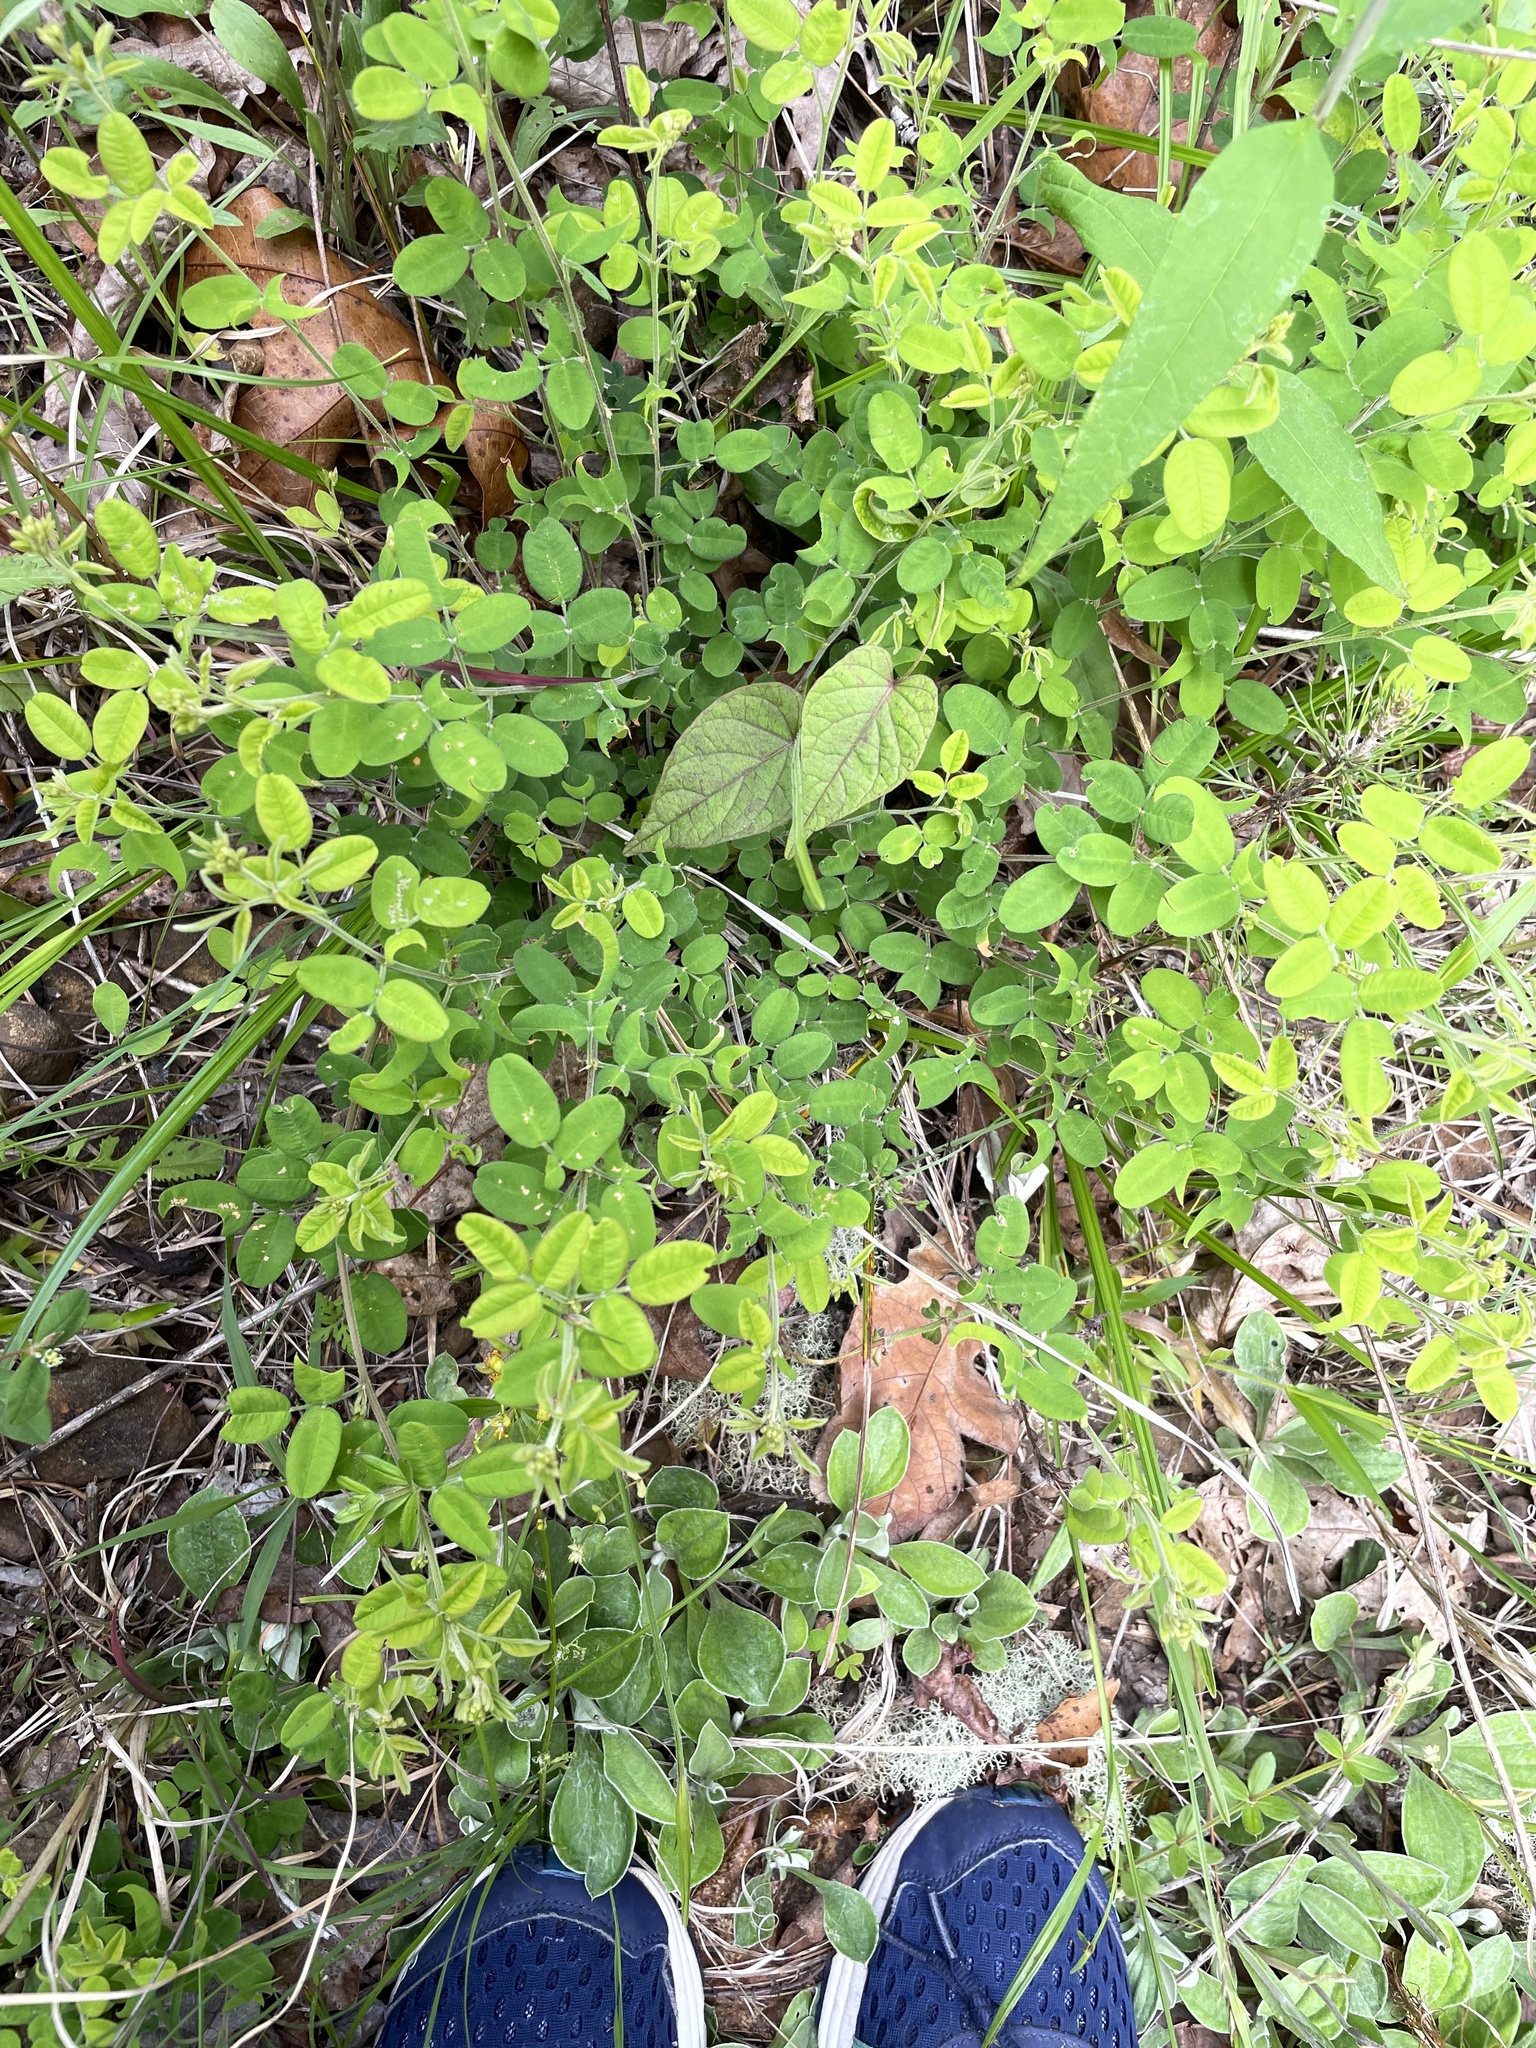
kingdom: Plantae
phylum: Tracheophyta
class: Magnoliopsida
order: Fabales
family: Fabaceae
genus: Lespedeza
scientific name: Lespedeza procumbens
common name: Downy trailing bush-clover
